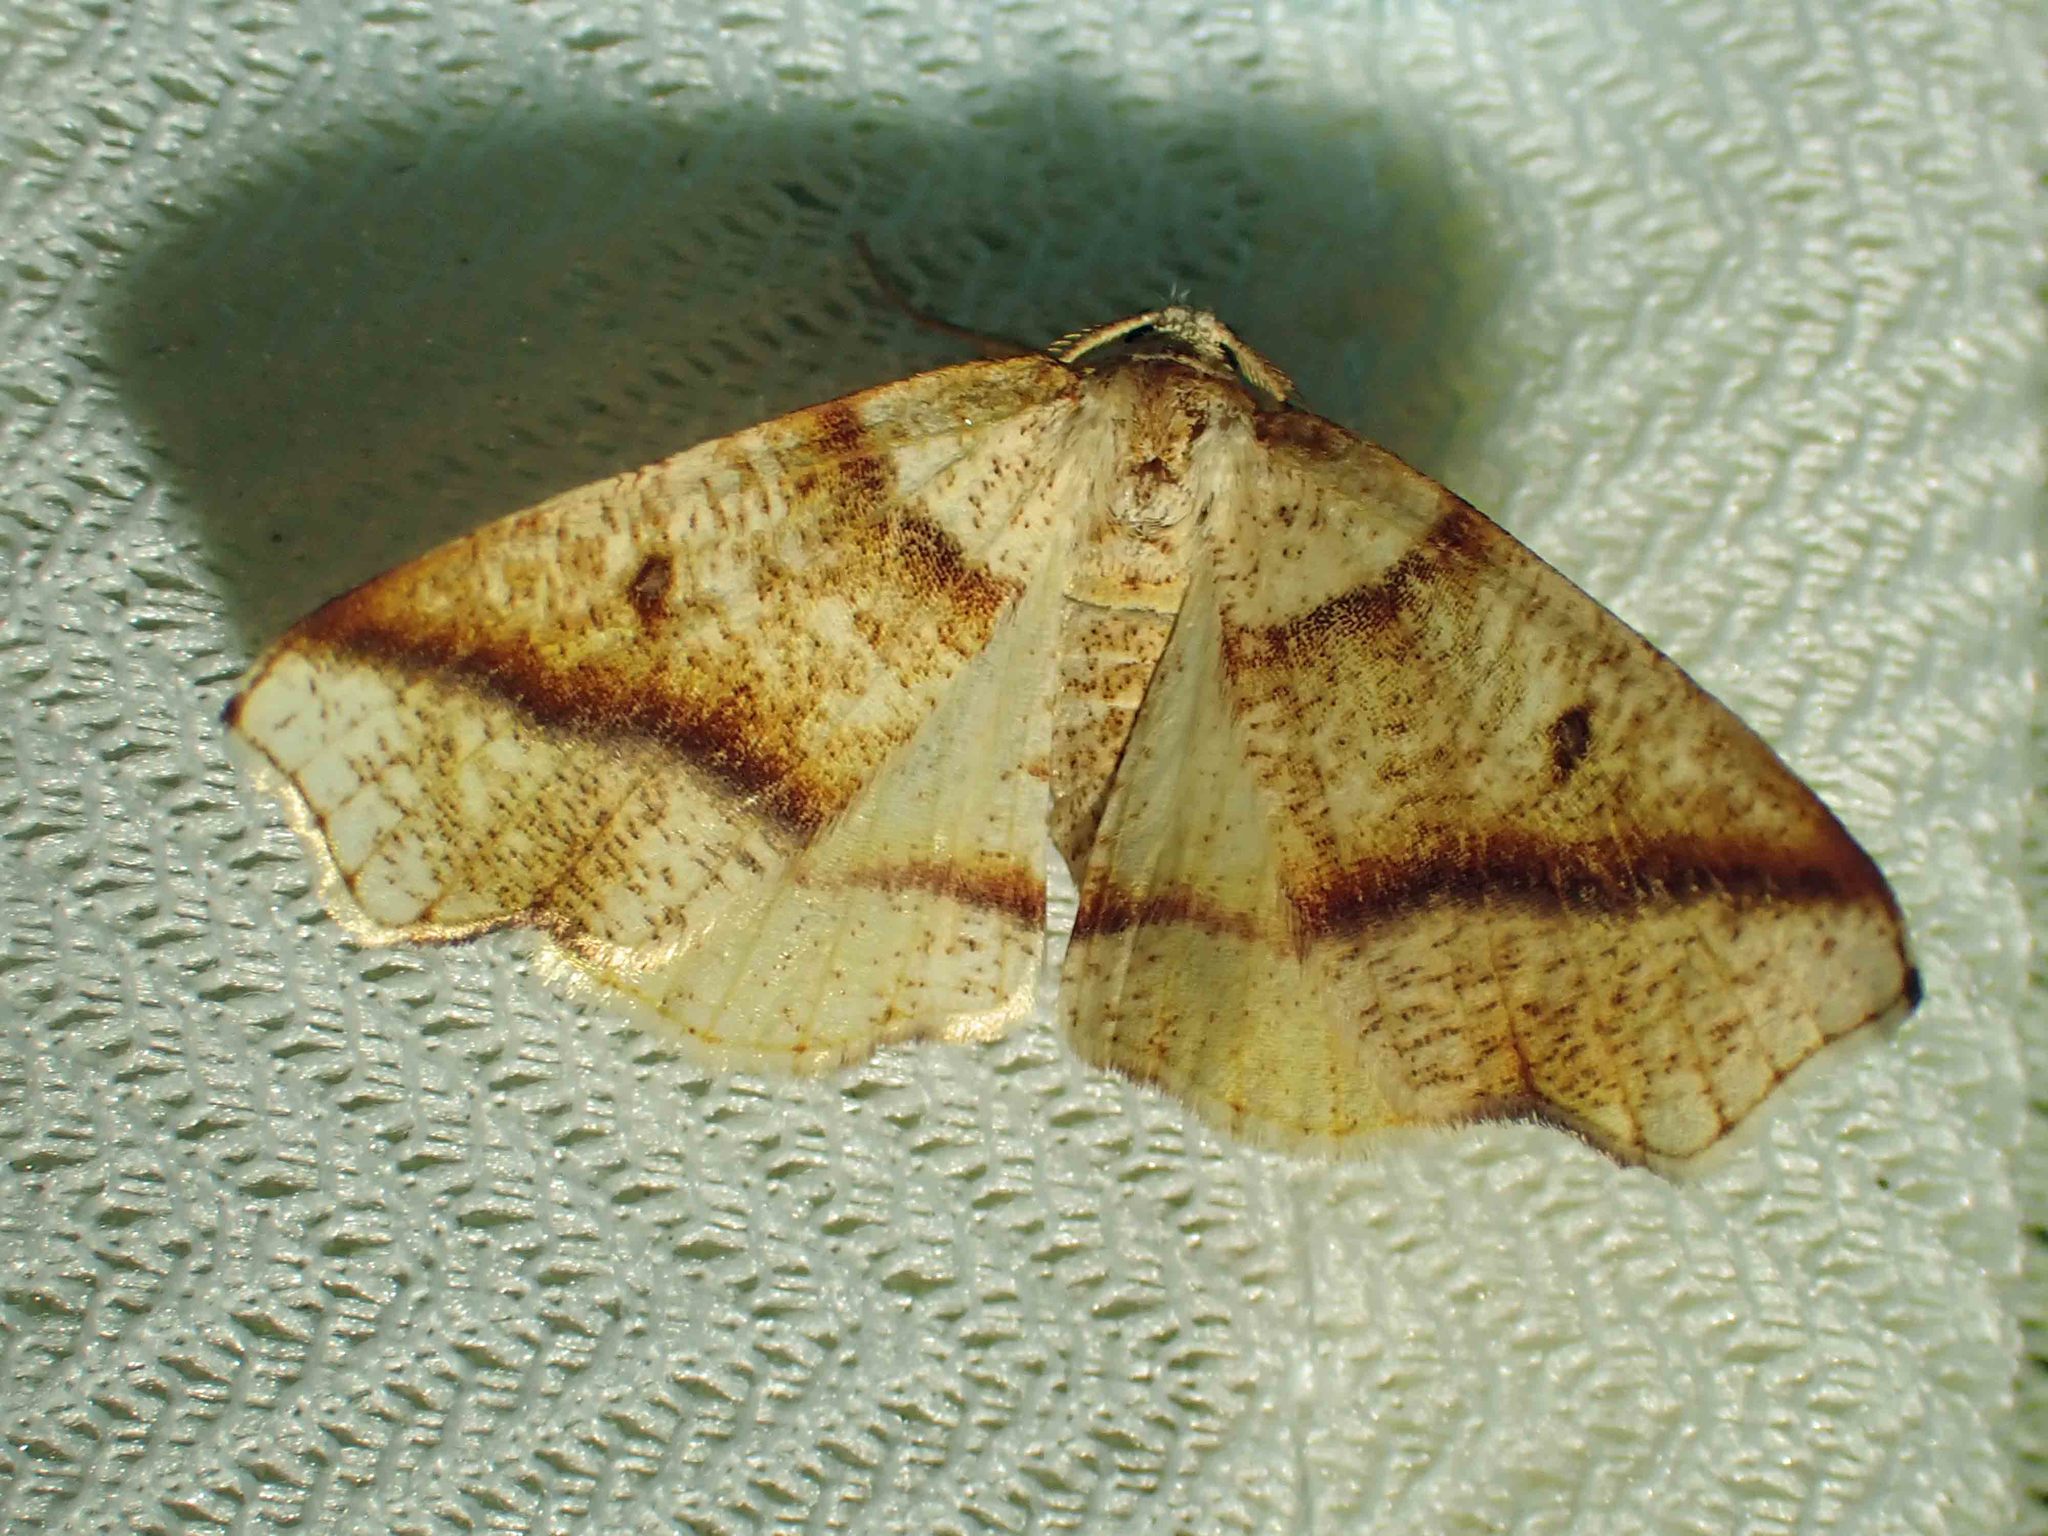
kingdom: Animalia
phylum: Arthropoda
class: Insecta
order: Lepidoptera
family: Geometridae
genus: Plagodis
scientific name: Plagodis alcoolaria
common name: Hollow-spotted plagodis
